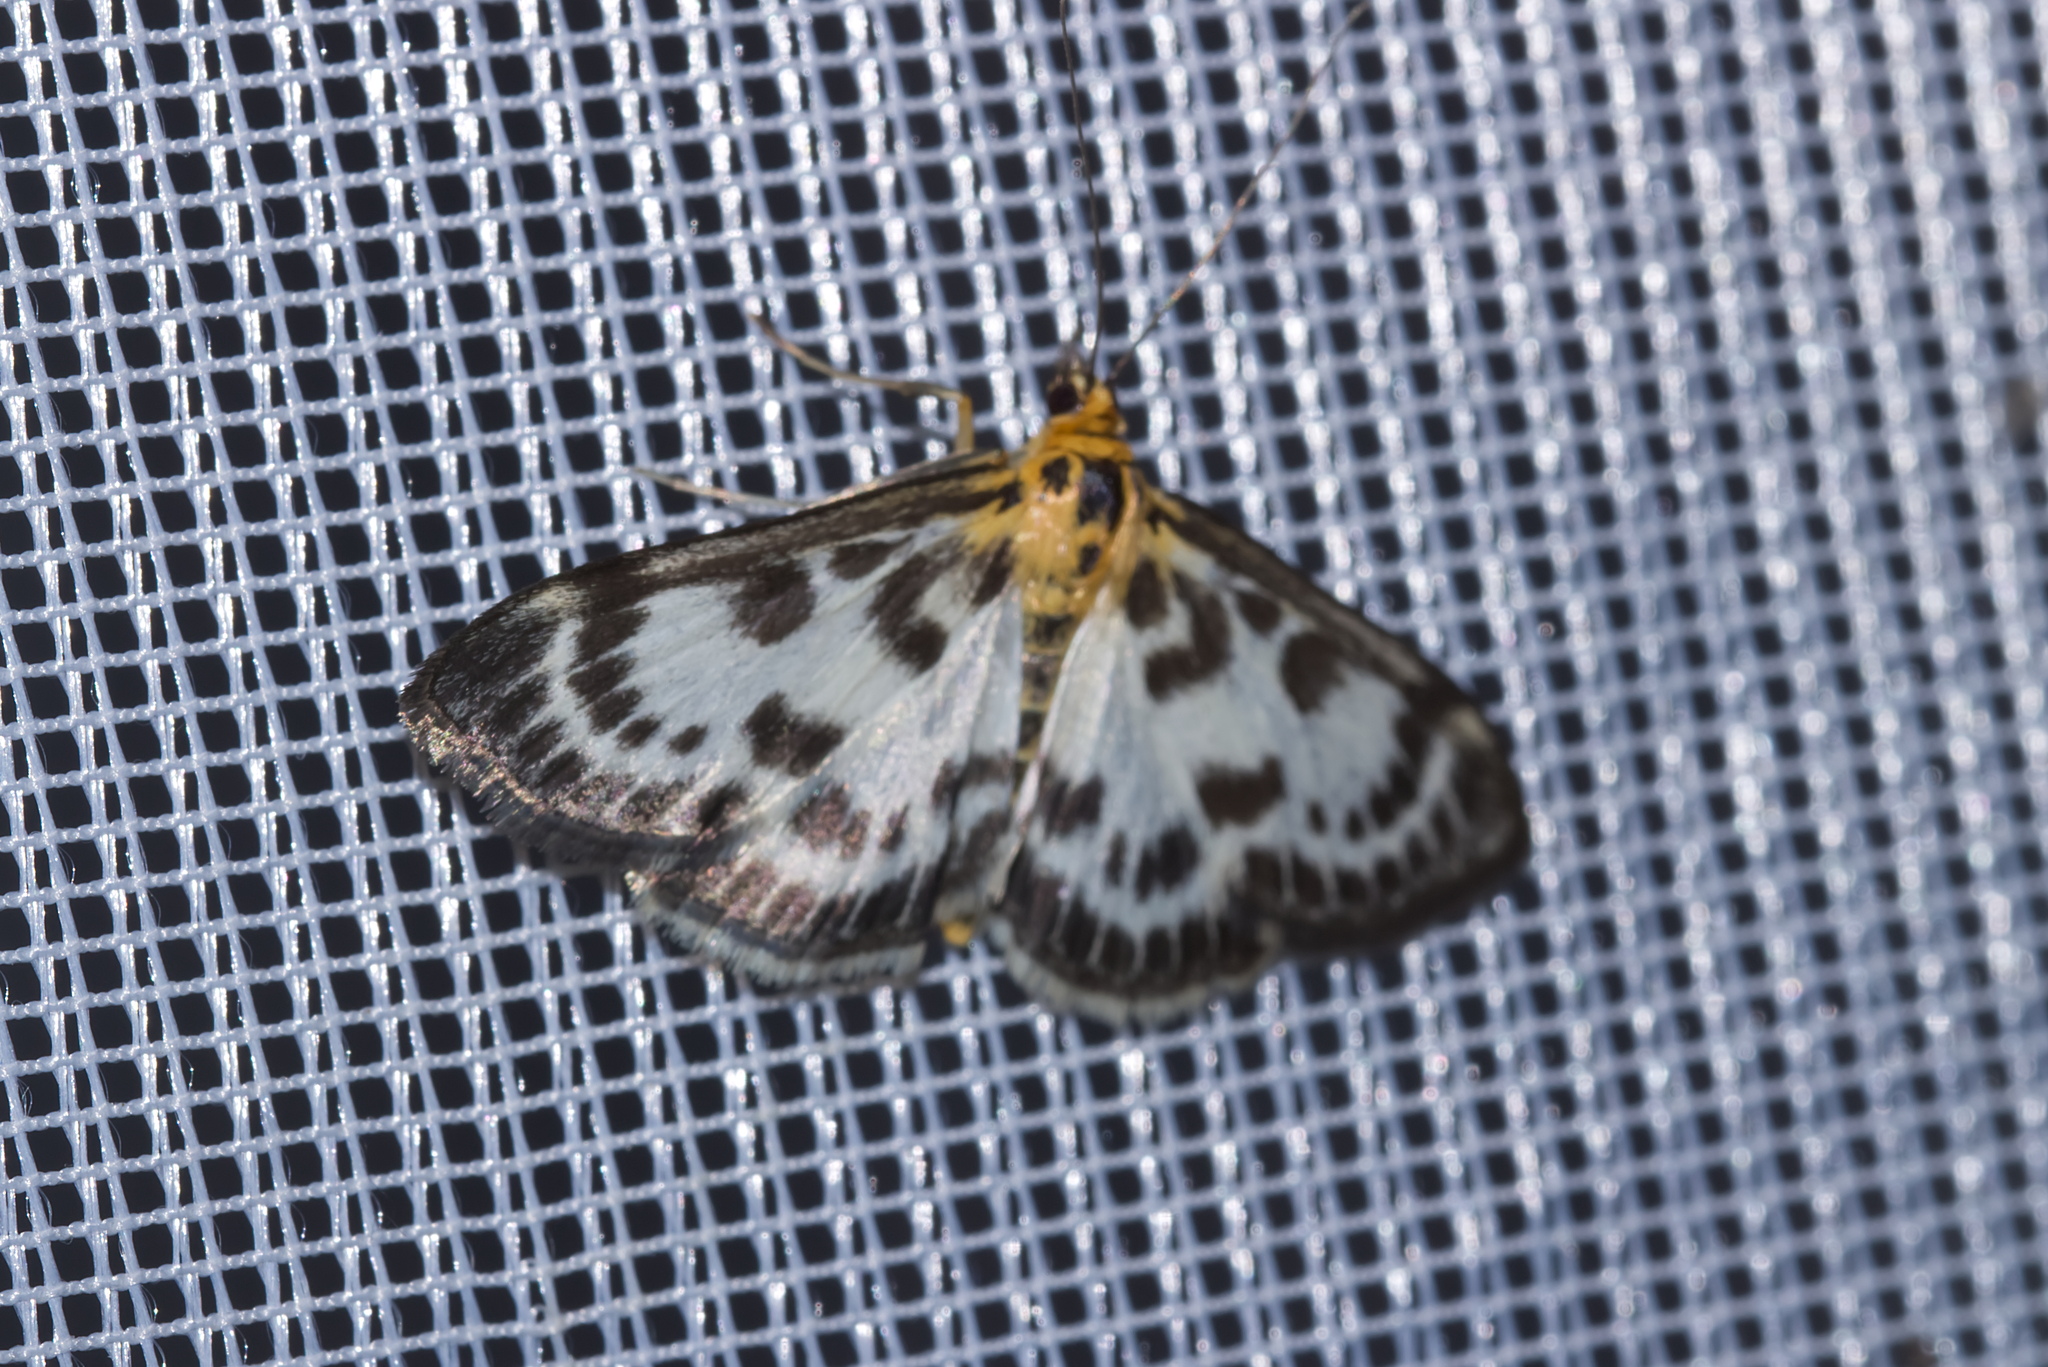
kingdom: Animalia
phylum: Arthropoda
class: Insecta
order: Lepidoptera
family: Crambidae
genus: Anania
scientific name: Anania hortulata
